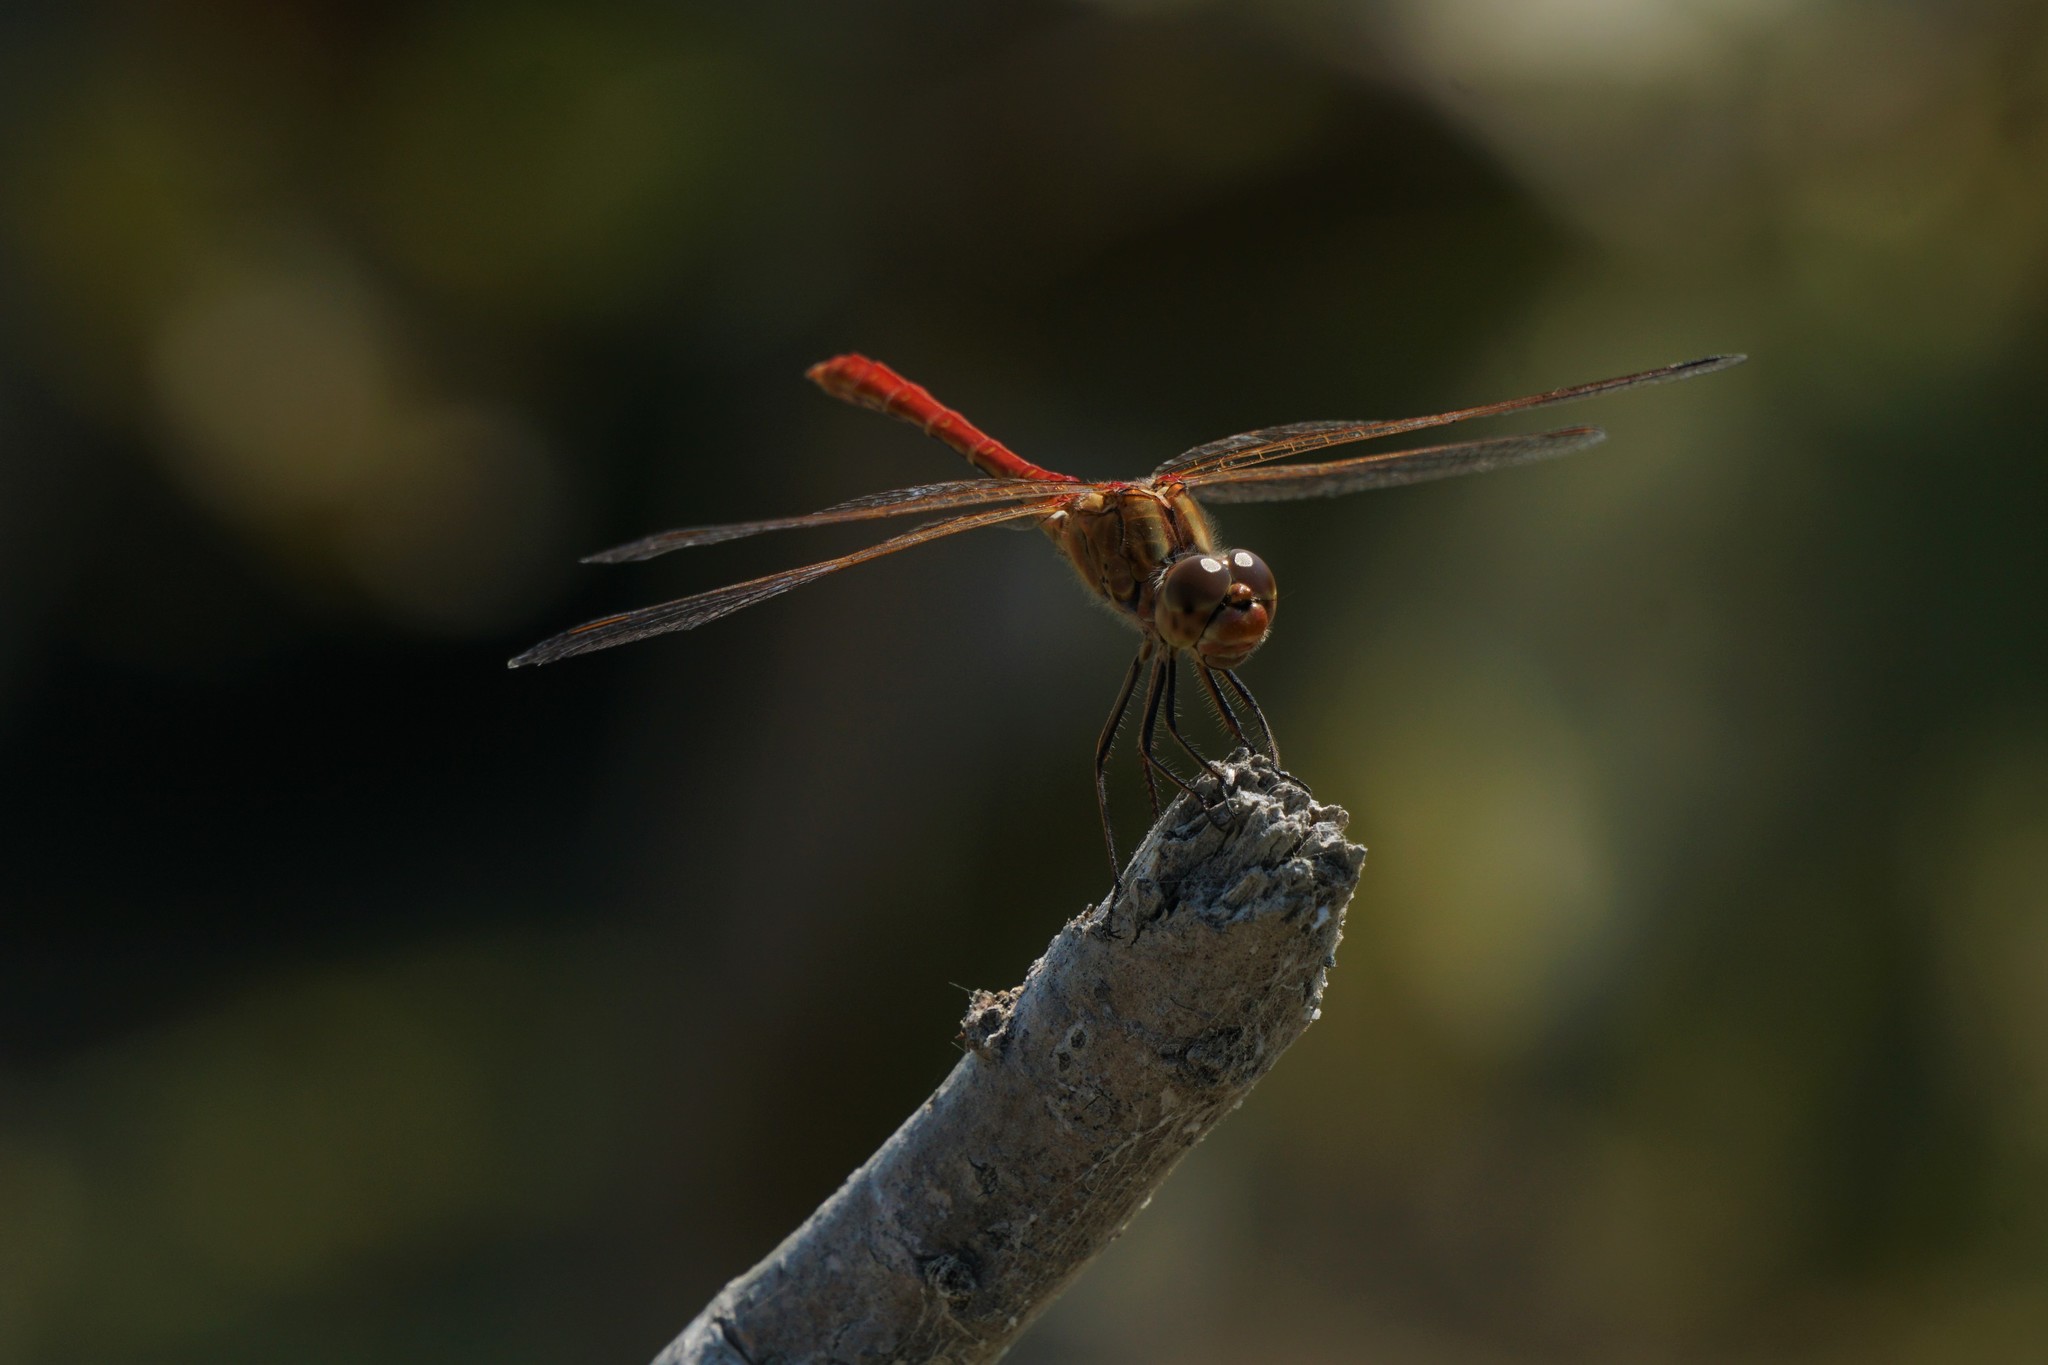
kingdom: Animalia
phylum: Arthropoda
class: Insecta
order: Odonata
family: Libellulidae
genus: Sympetrum
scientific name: Sympetrum meridionale
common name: Southern darter
